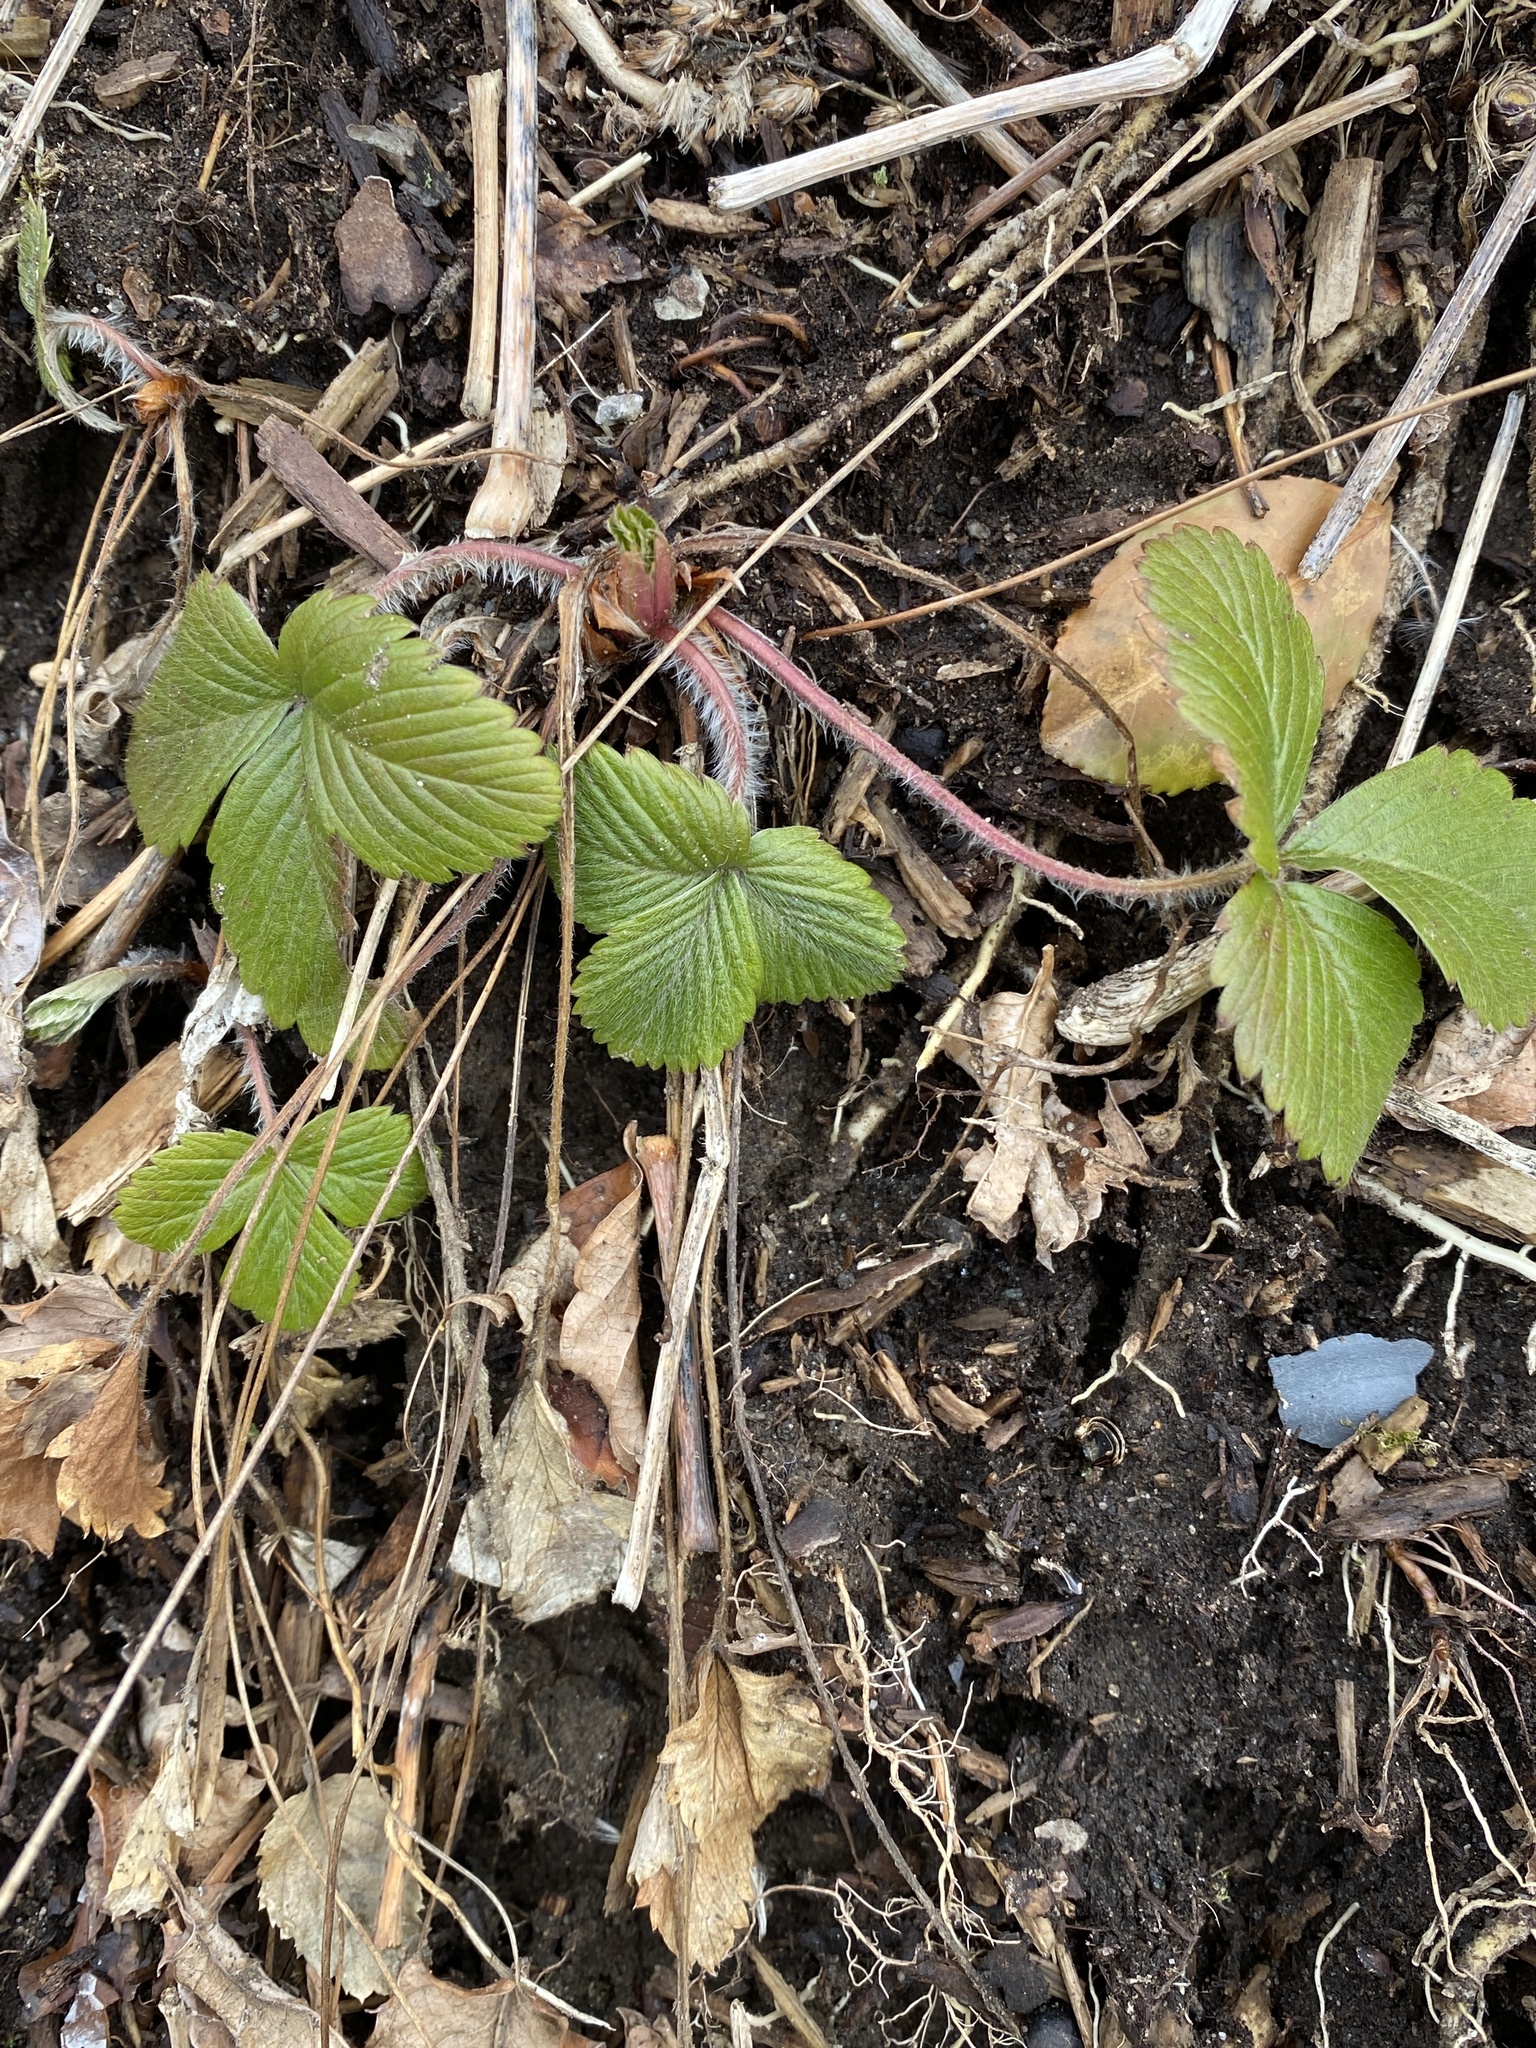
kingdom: Plantae
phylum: Tracheophyta
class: Magnoliopsida
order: Rosales
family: Rosaceae
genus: Fragaria
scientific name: Fragaria virginiana
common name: Thickleaved wild strawberry
